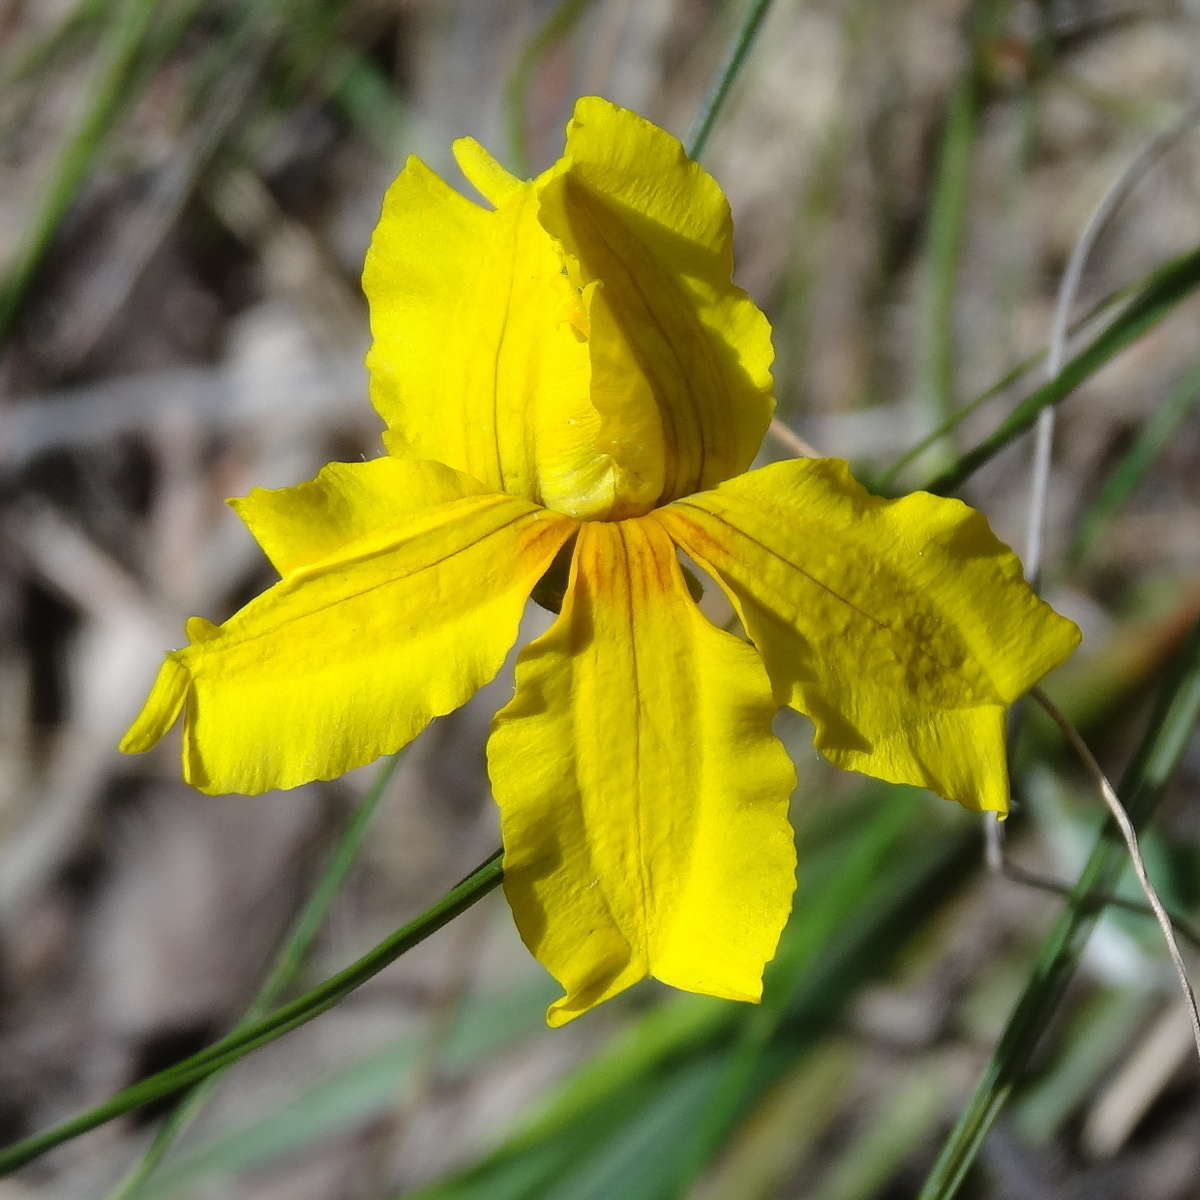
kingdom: Plantae
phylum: Tracheophyta
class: Magnoliopsida
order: Asterales
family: Goodeniaceae
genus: Goodenia
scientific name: Goodenia lanata
